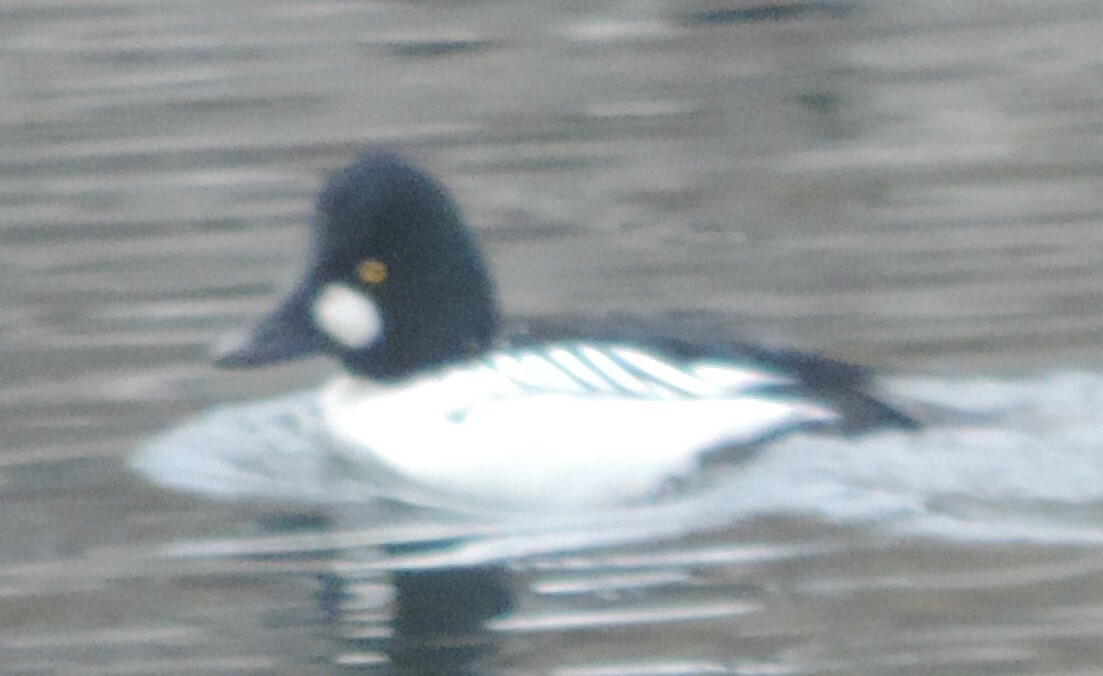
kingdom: Animalia
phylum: Chordata
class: Aves
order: Anseriformes
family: Anatidae
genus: Bucephala
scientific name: Bucephala clangula
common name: Common goldeneye
